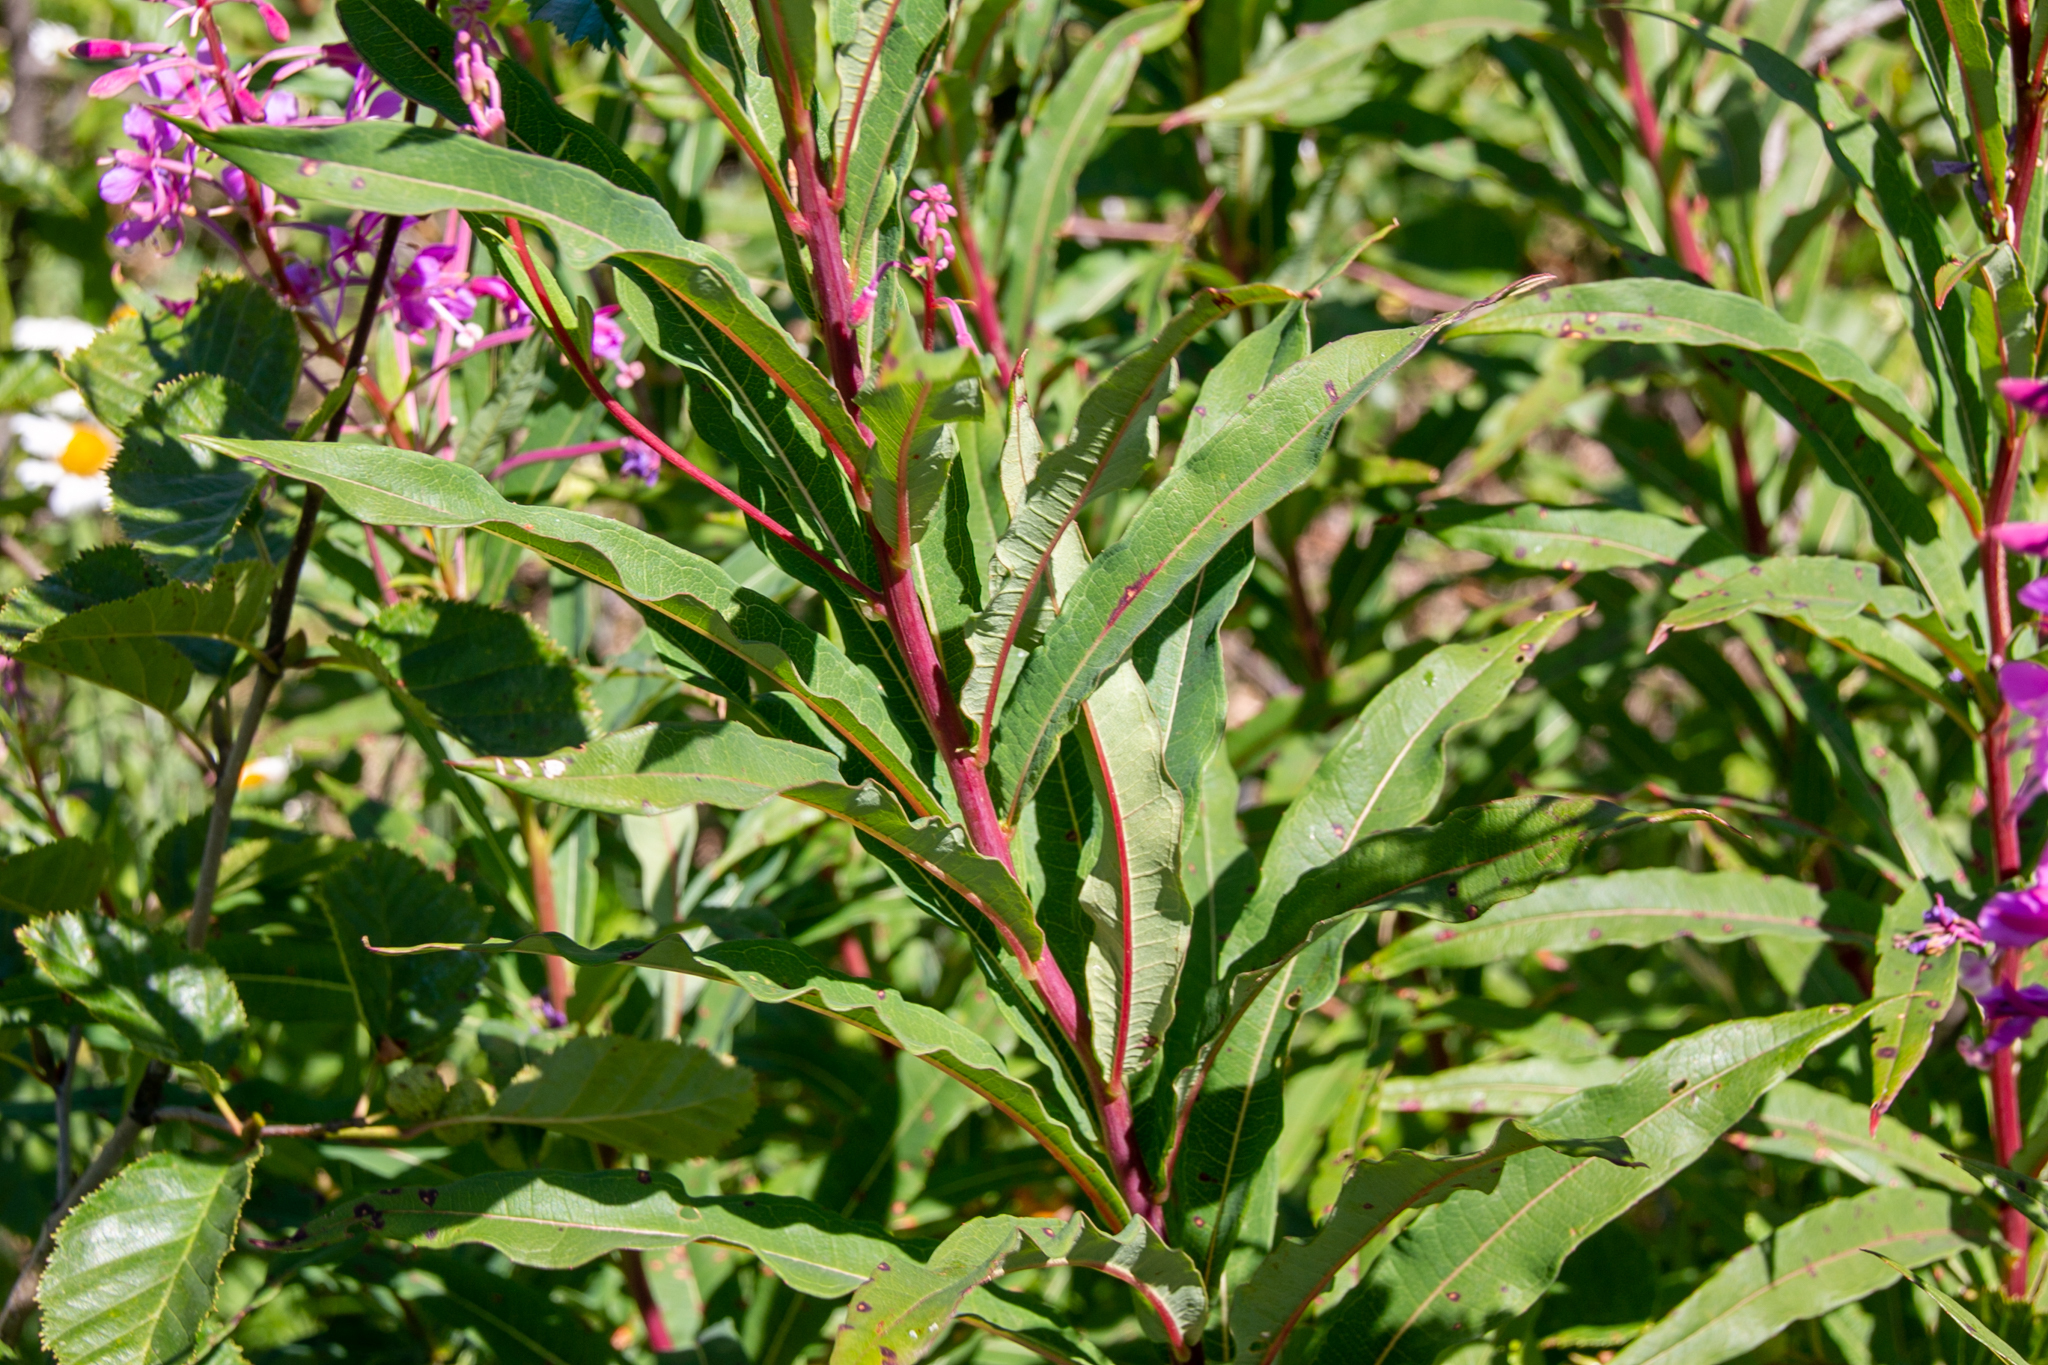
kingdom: Plantae
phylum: Tracheophyta
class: Magnoliopsida
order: Myrtales
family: Onagraceae
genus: Chamaenerion
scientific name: Chamaenerion angustifolium
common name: Fireweed
